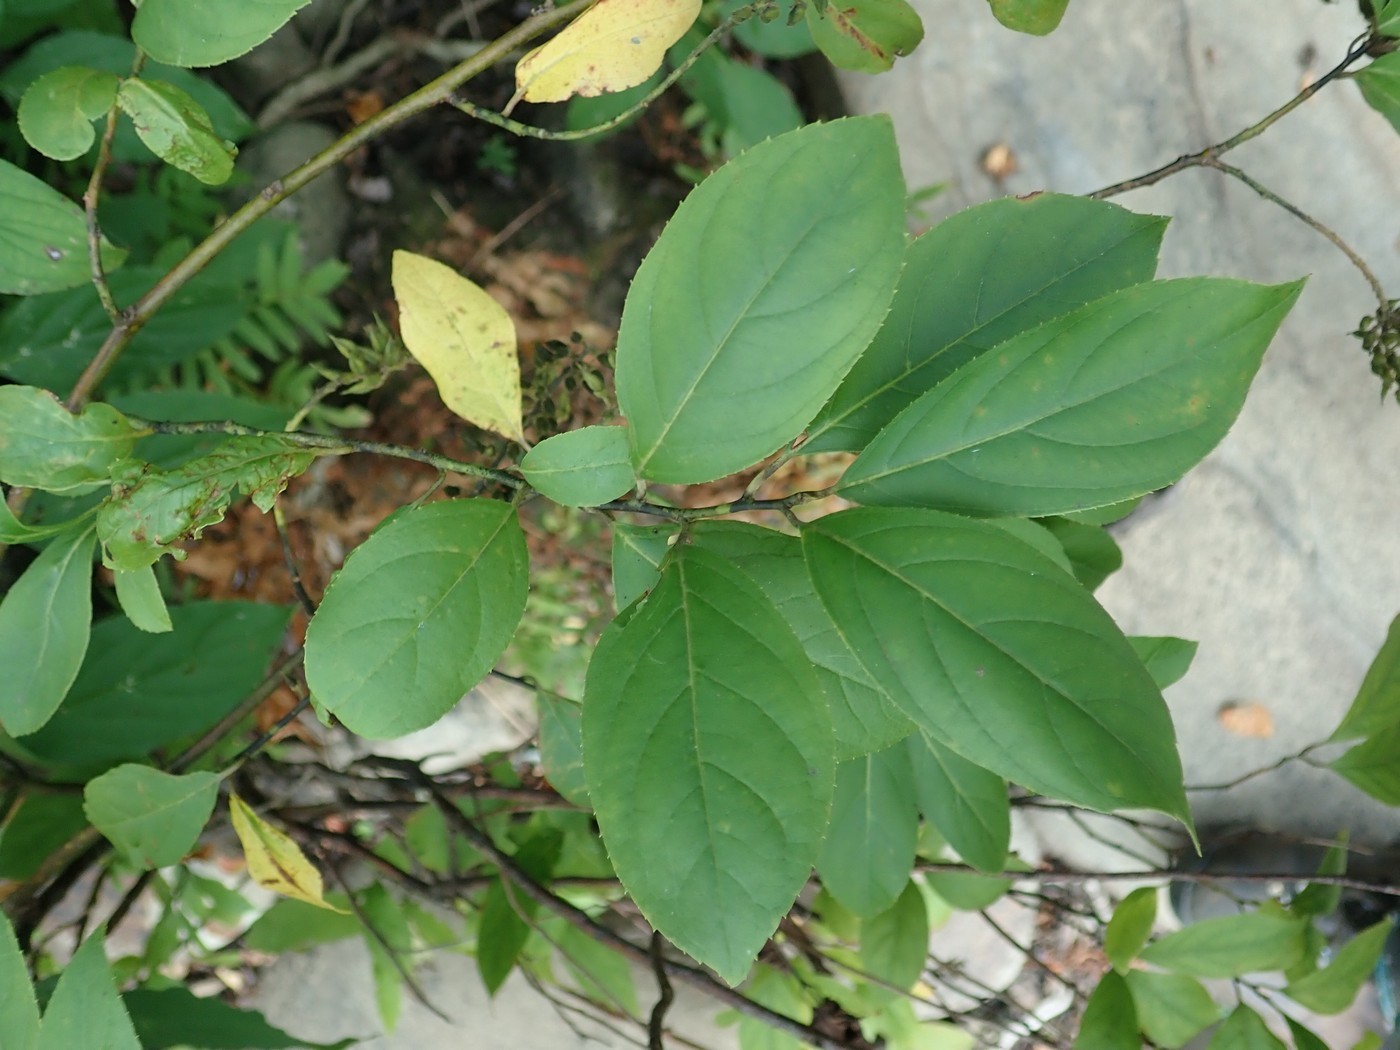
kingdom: Plantae
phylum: Tracheophyta
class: Magnoliopsida
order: Saxifragales
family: Iteaceae
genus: Itea
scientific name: Itea virginica
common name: Sweetspire
